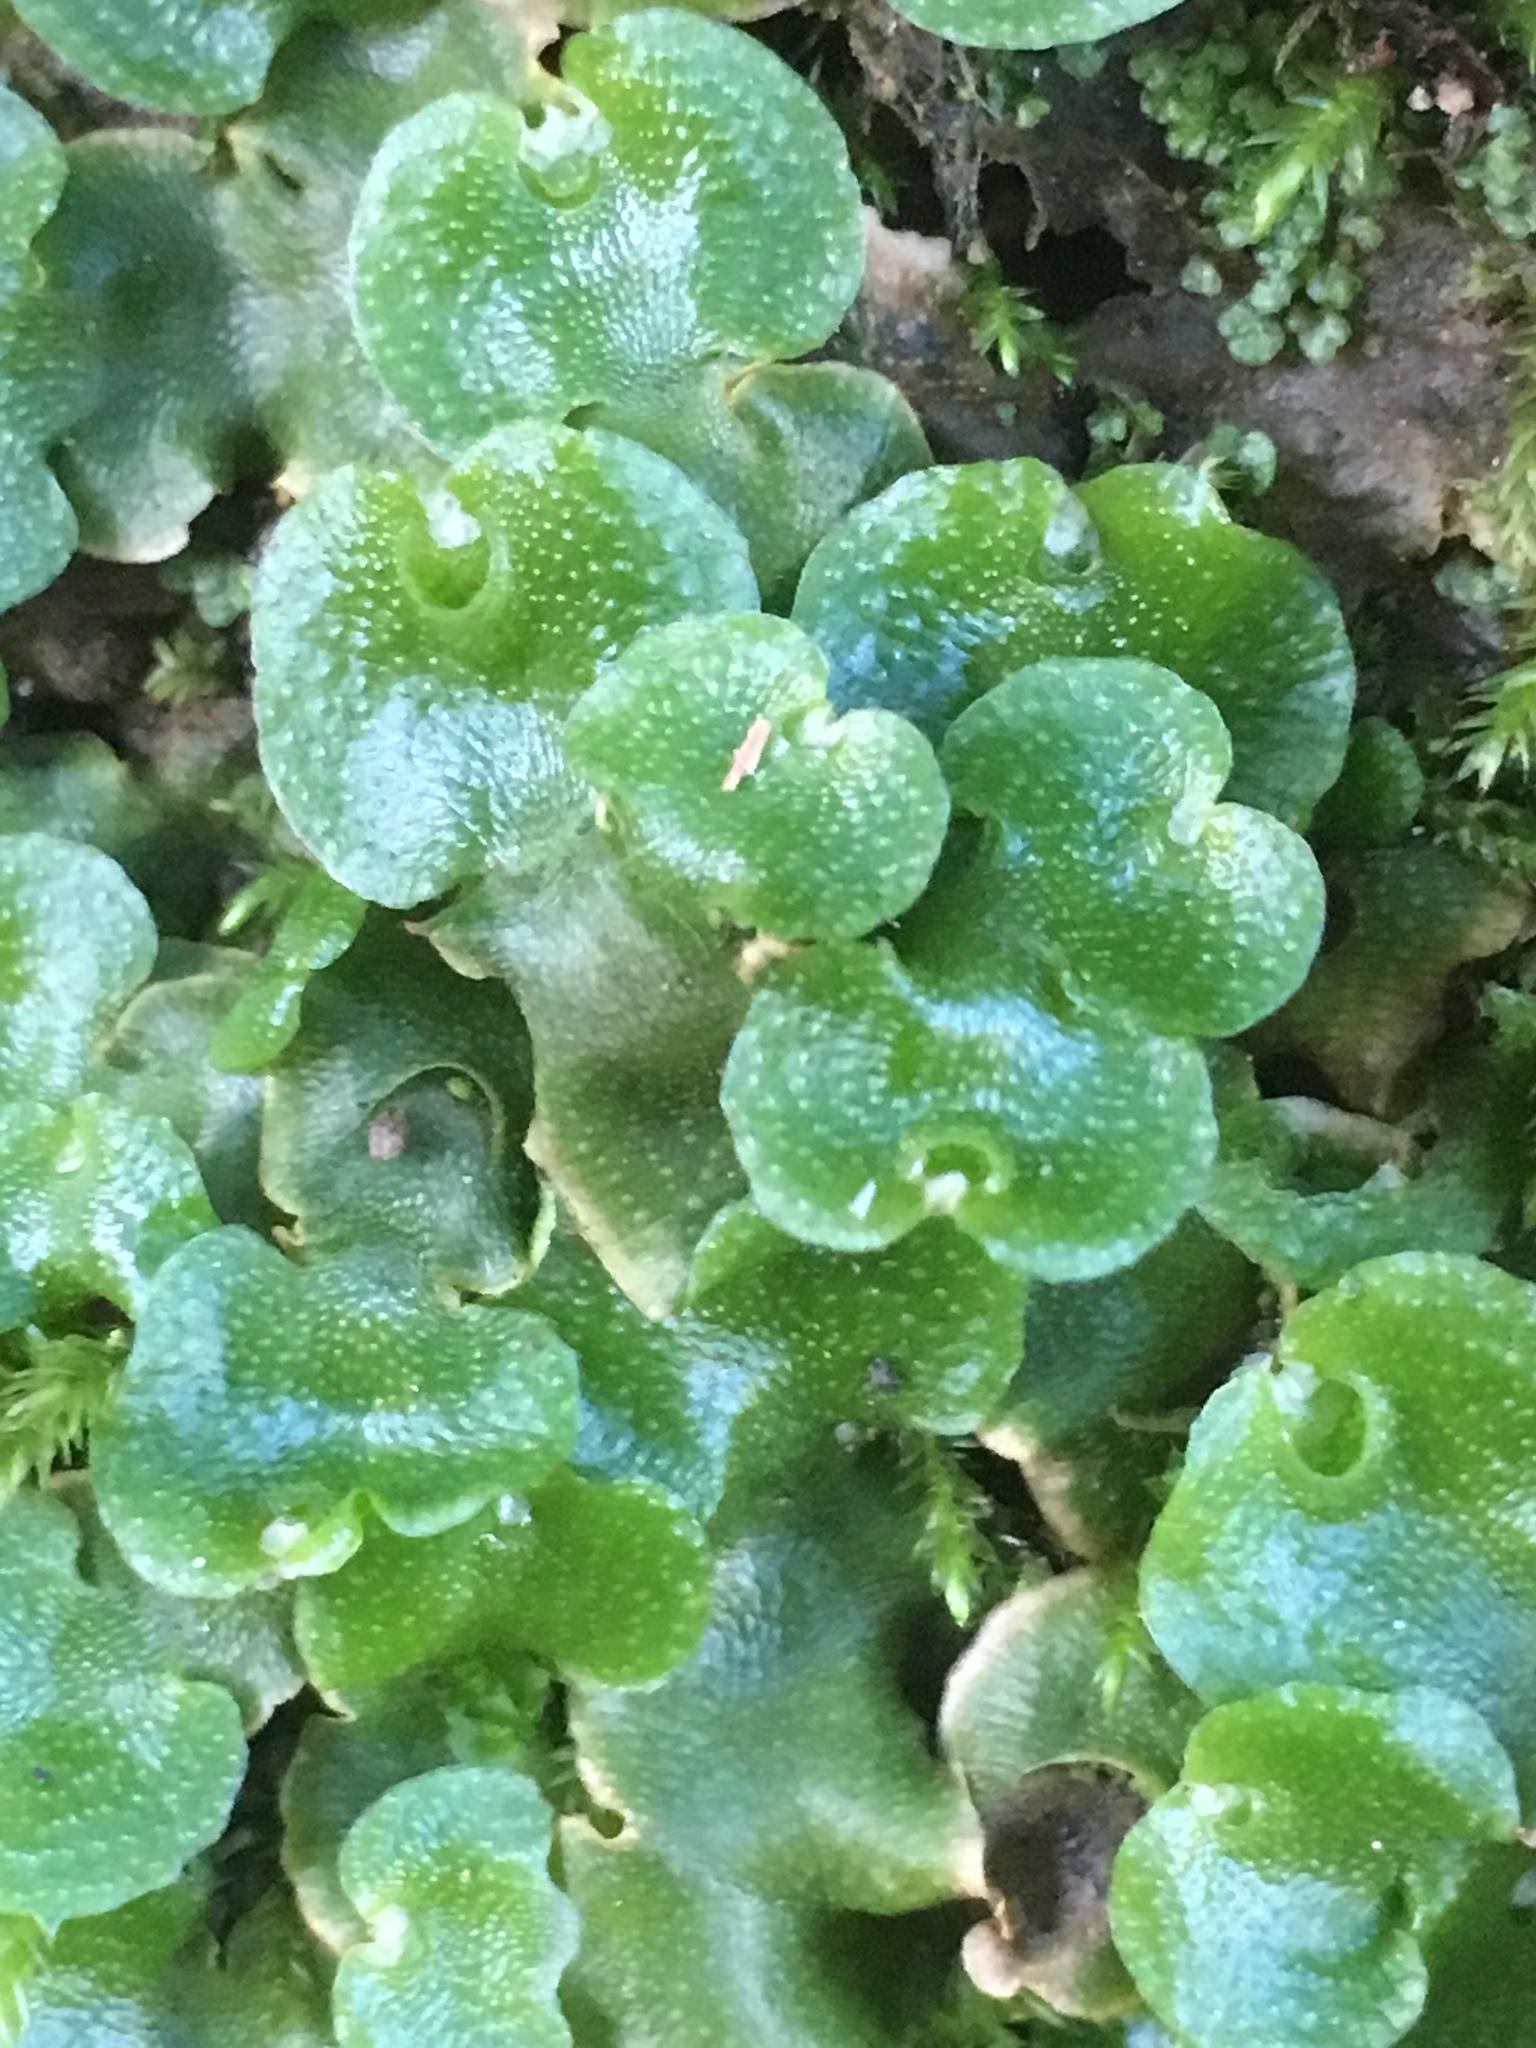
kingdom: Plantae
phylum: Marchantiophyta
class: Marchantiopsida
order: Lunulariales
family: Lunulariaceae
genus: Lunularia
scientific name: Lunularia cruciata
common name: Crescent-cup liverwort
